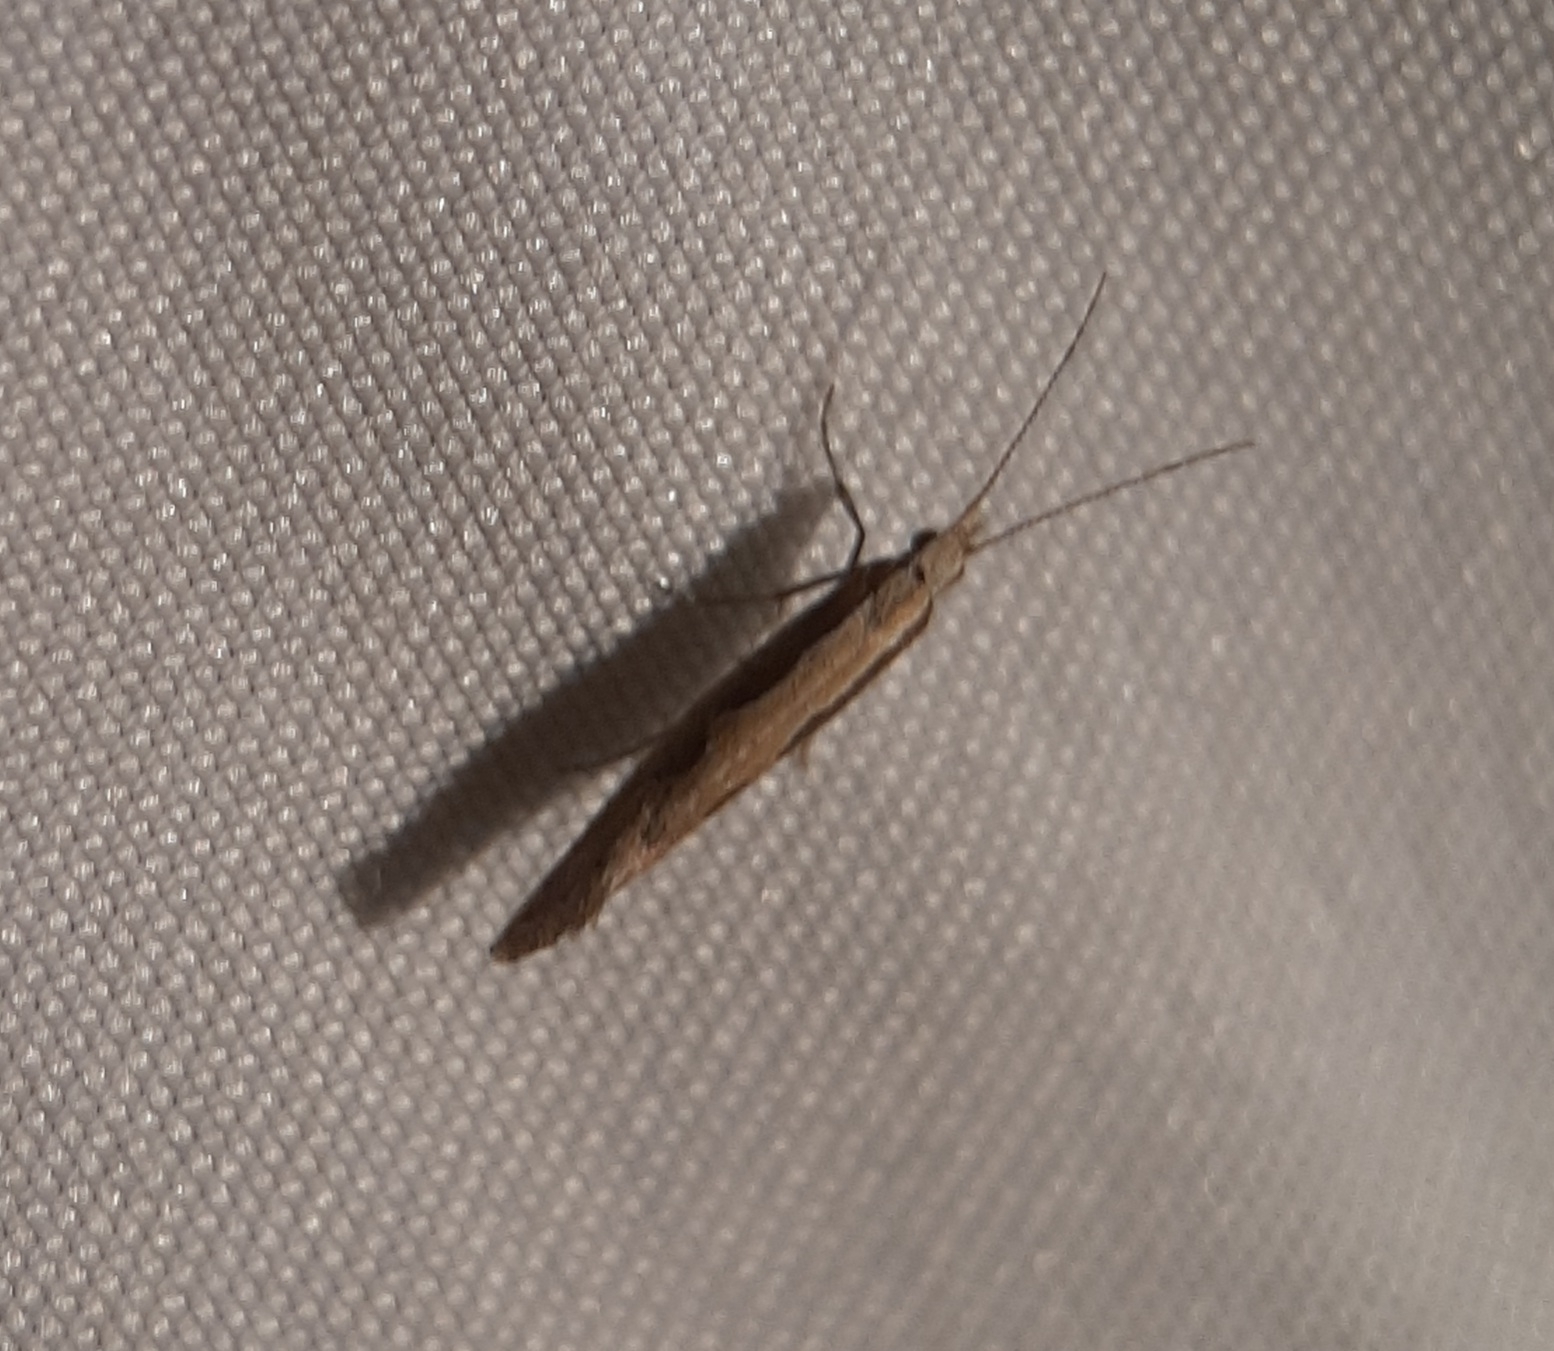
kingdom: Animalia
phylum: Arthropoda
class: Insecta
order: Lepidoptera
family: Plutellidae
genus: Plutella
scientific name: Plutella xylostella
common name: Diamond-back moth
